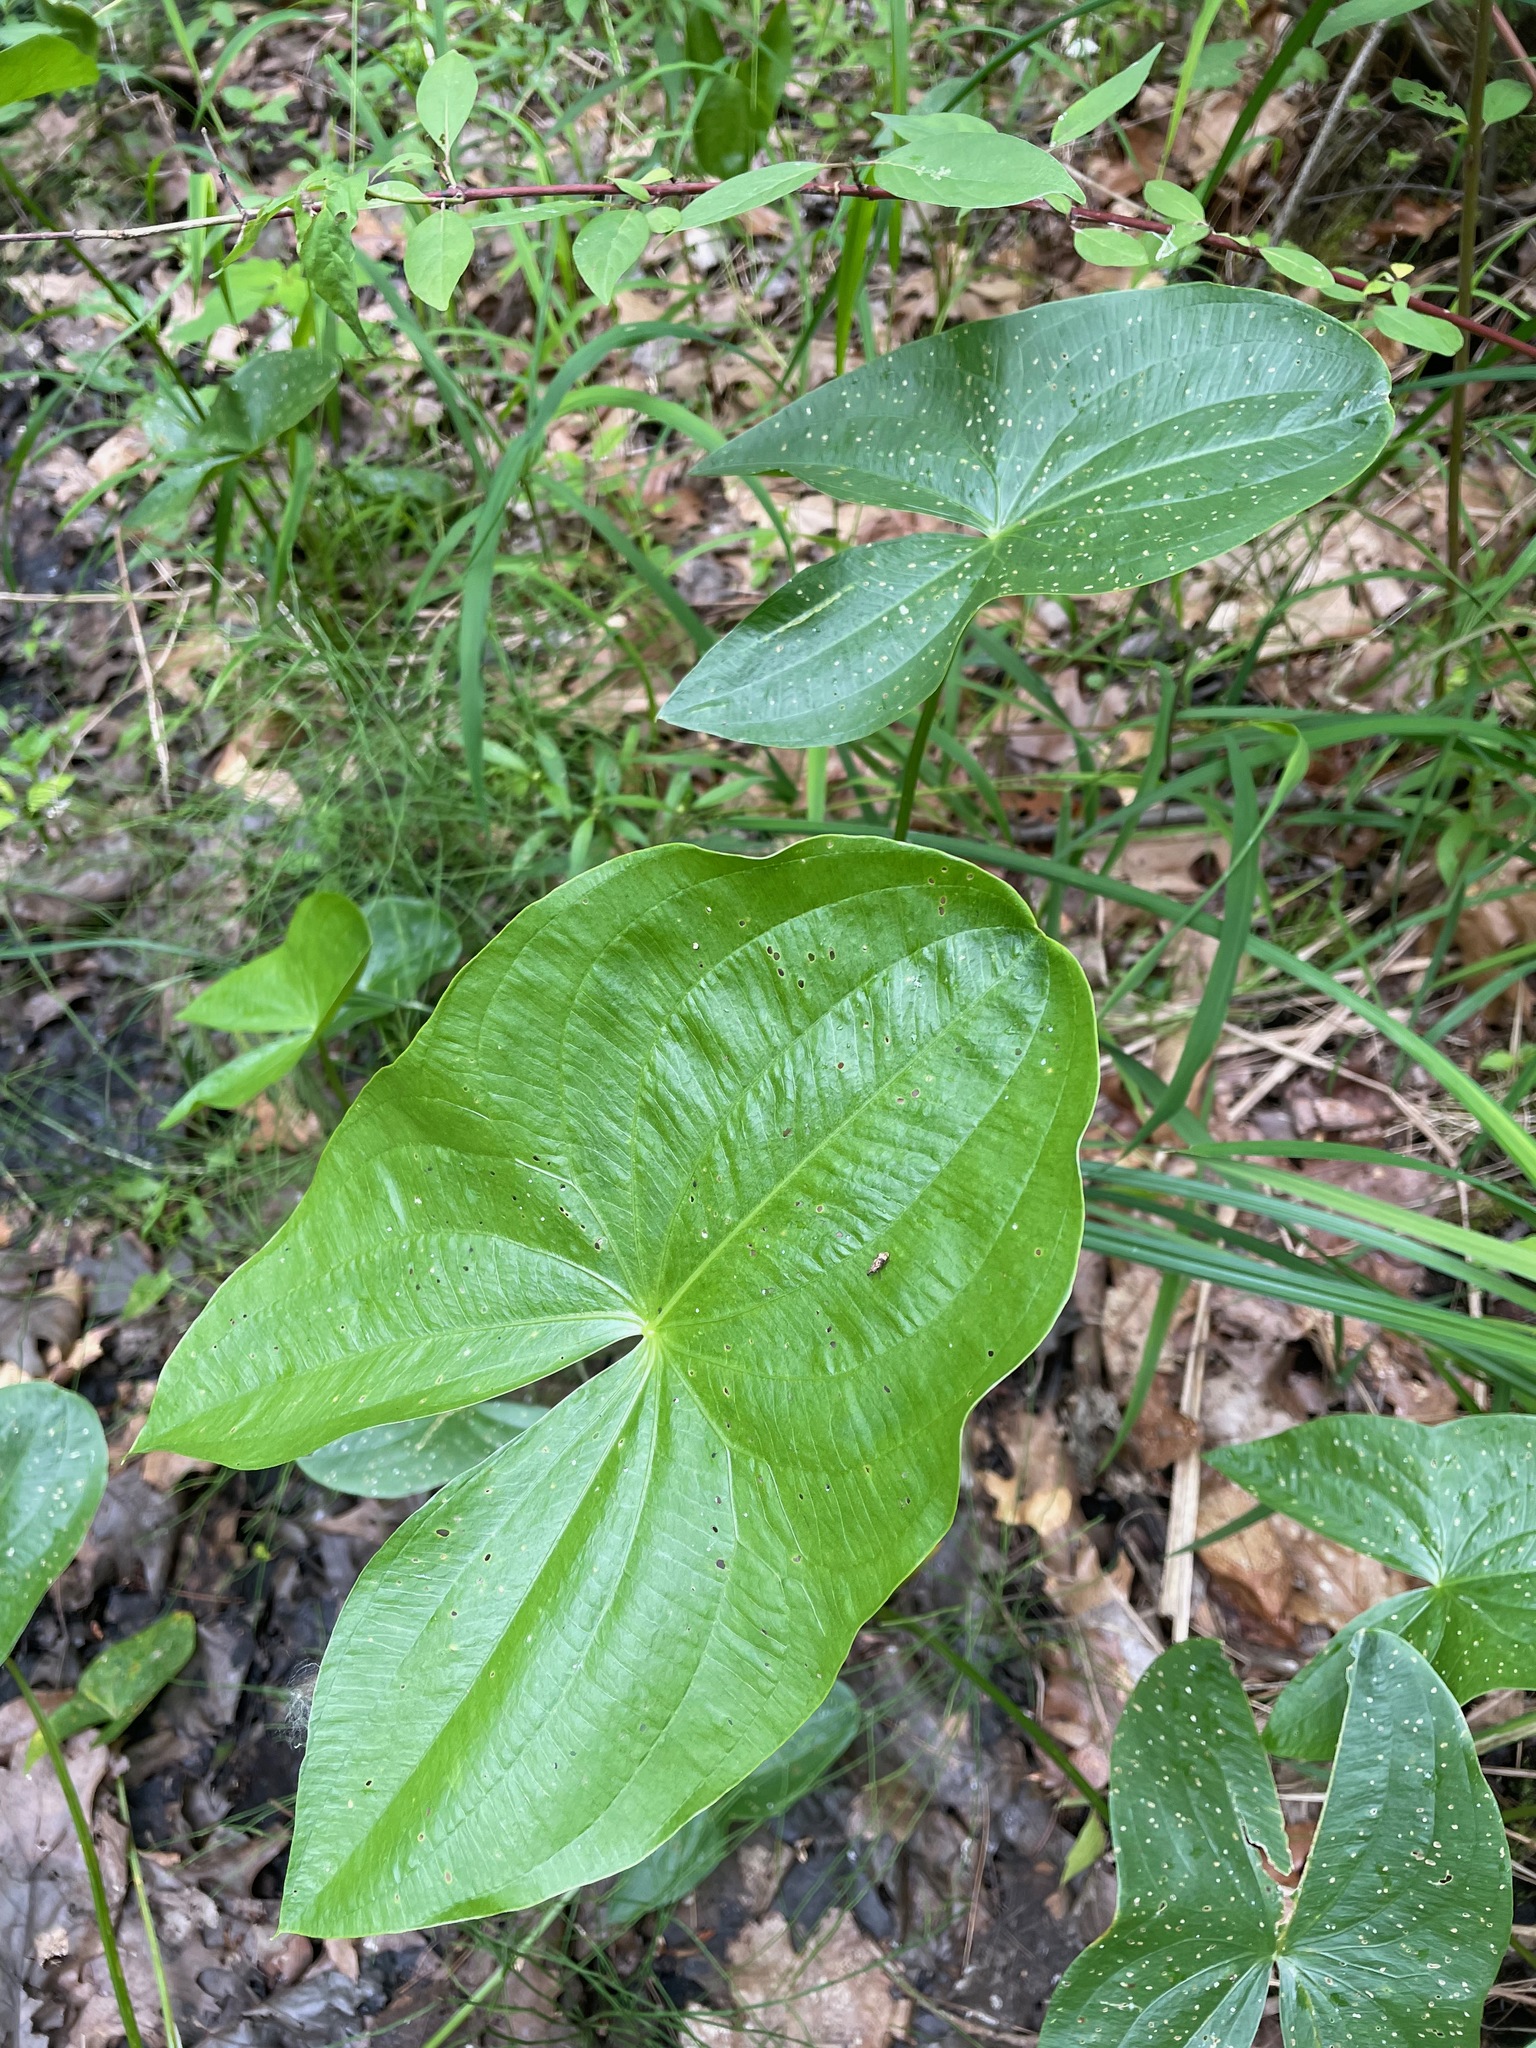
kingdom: Plantae
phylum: Tracheophyta
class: Liliopsida
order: Alismatales
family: Alismataceae
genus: Sagittaria
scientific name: Sagittaria latifolia
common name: Duck-potato
